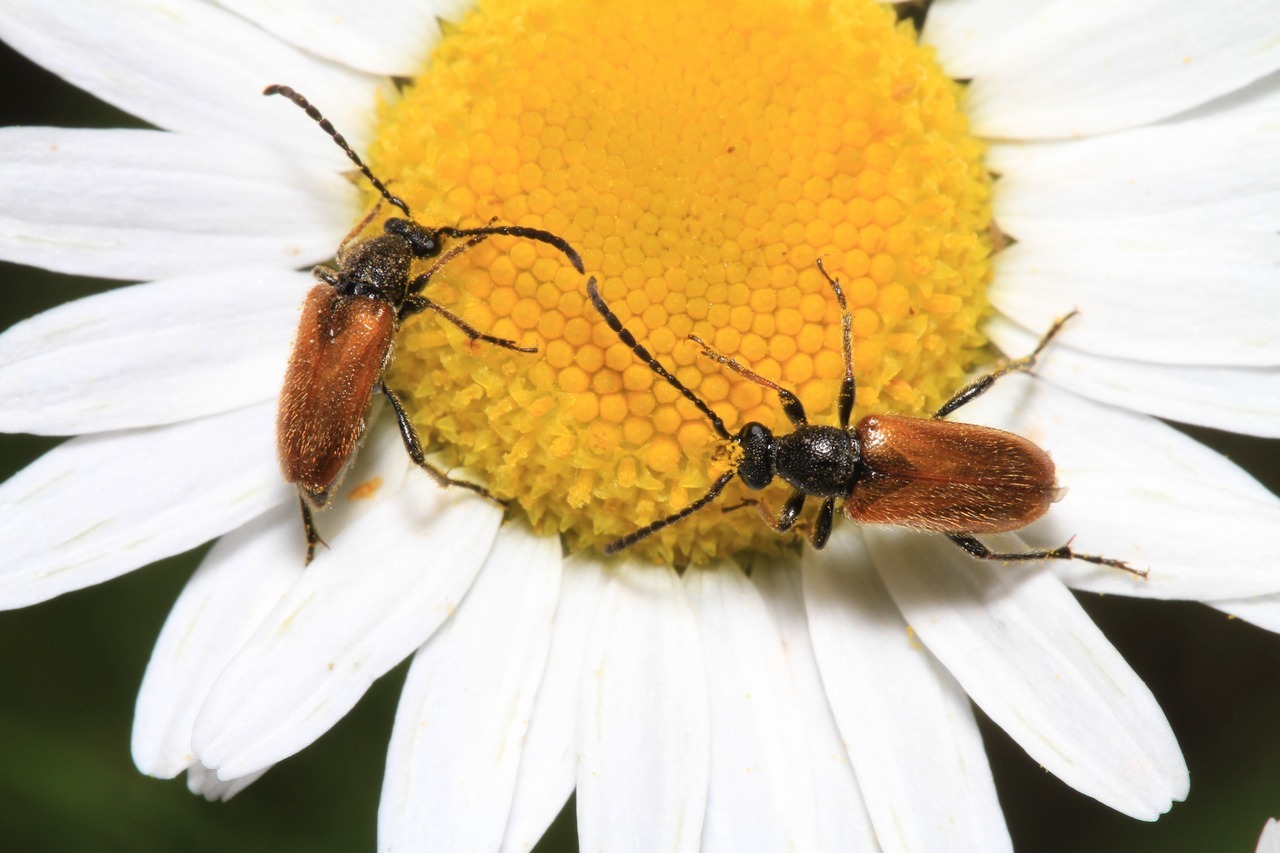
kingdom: Animalia
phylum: Arthropoda
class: Insecta
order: Coleoptera
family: Cerambycidae
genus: Pseudovadonia
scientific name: Pseudovadonia livida
